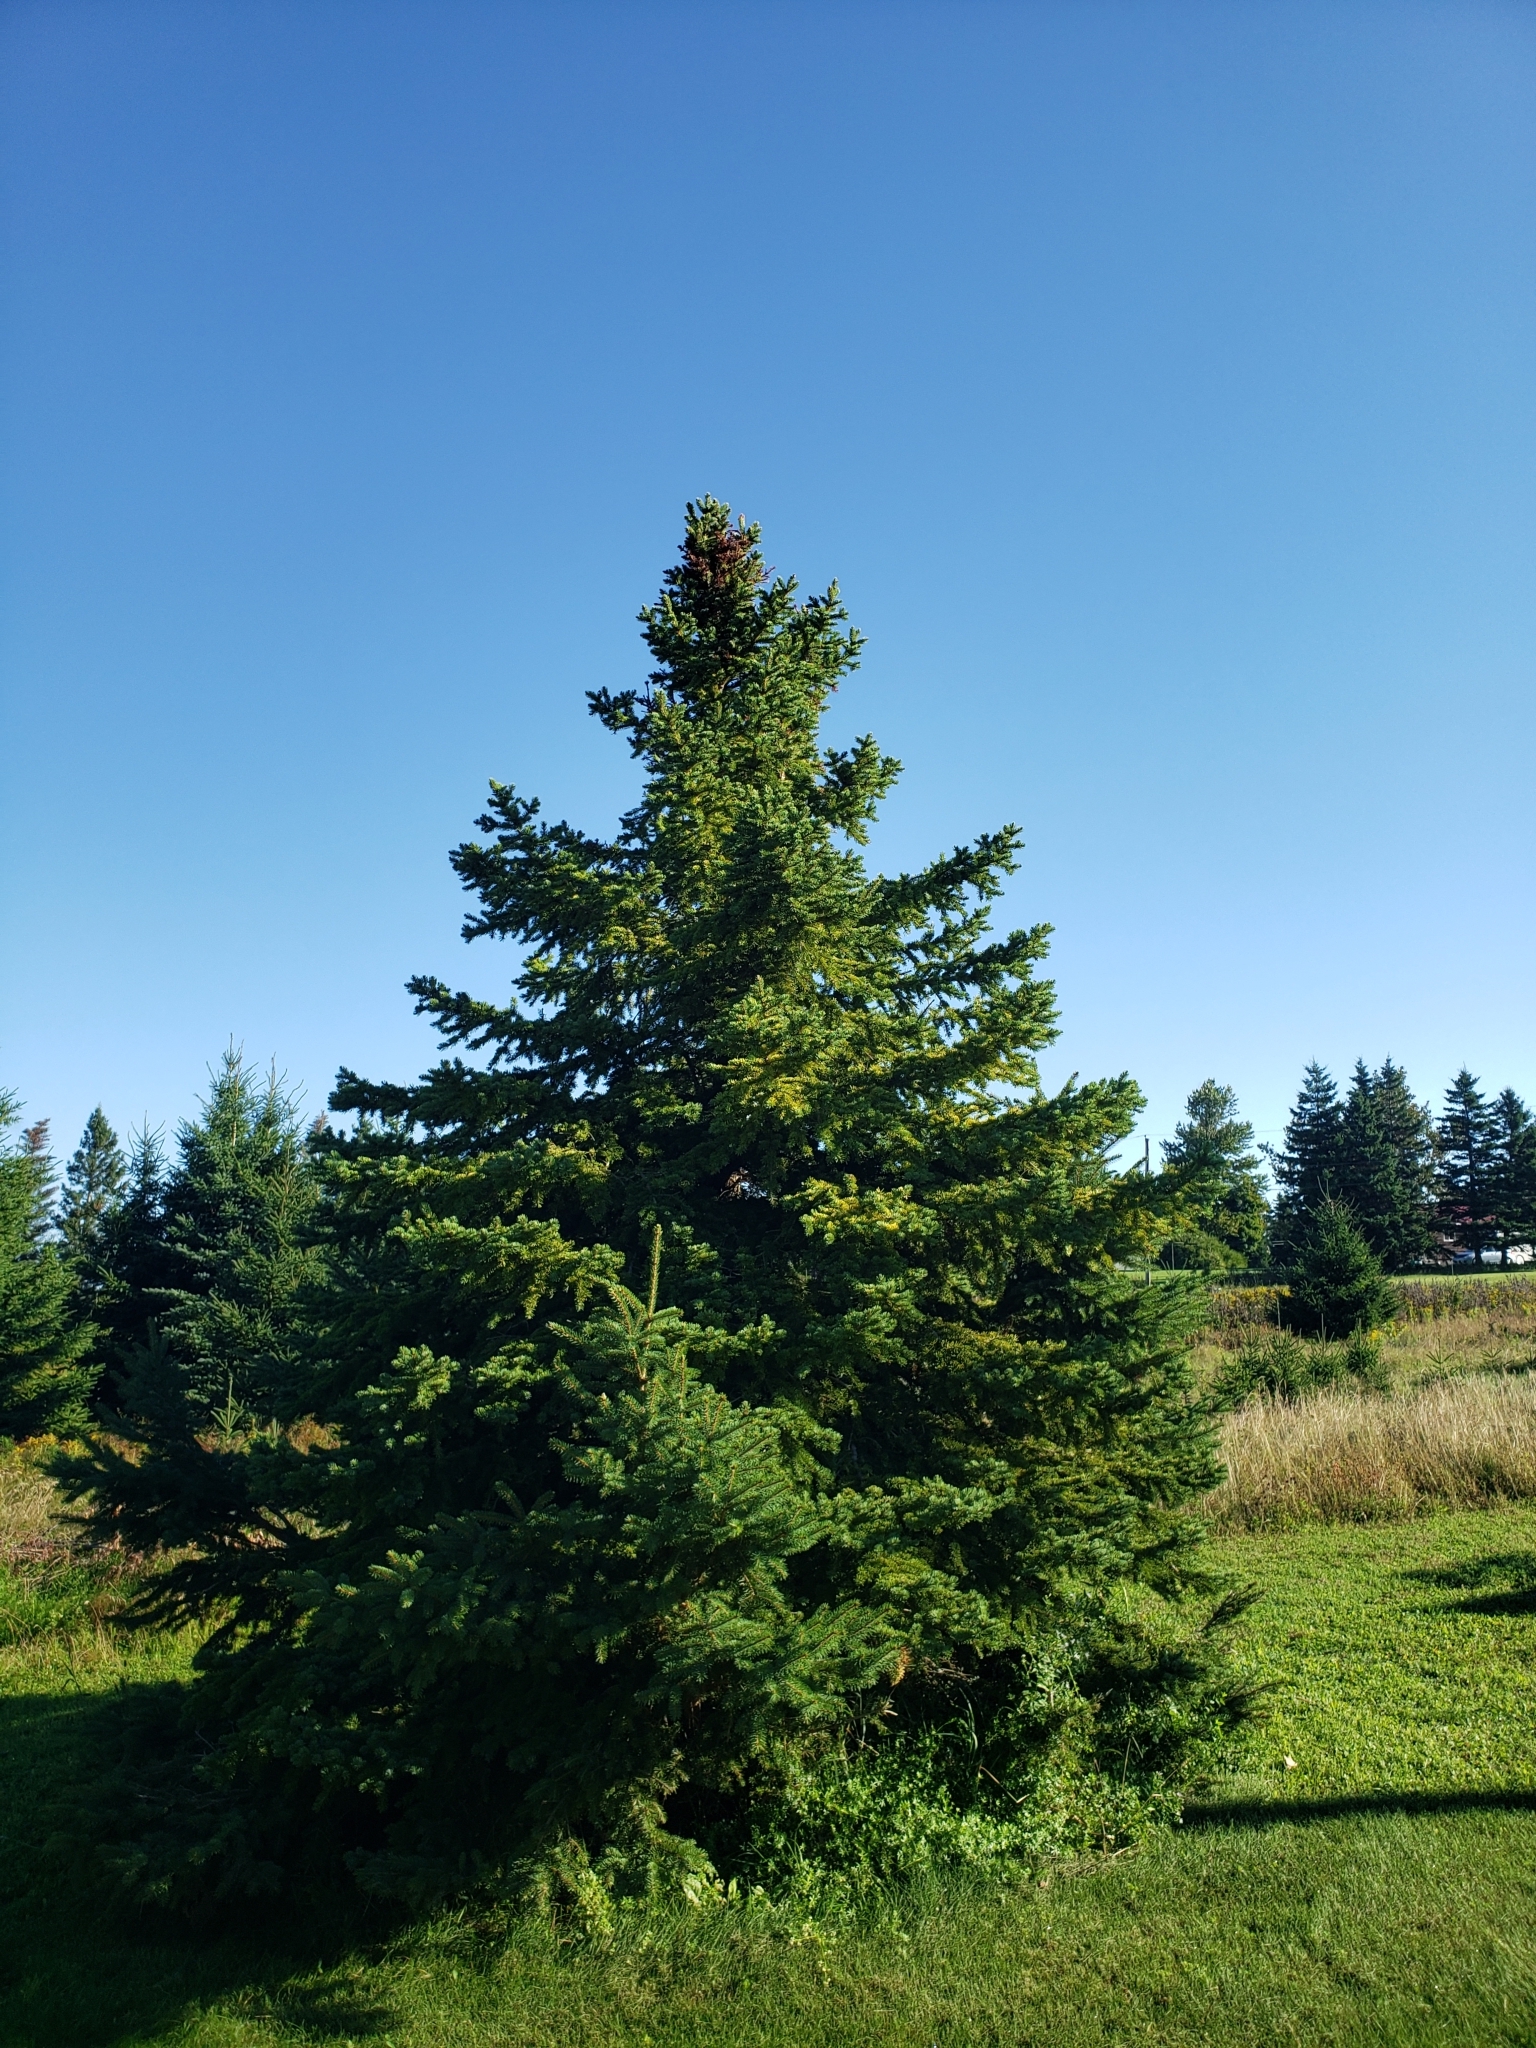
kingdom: Plantae
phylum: Tracheophyta
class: Pinopsida
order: Pinales
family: Pinaceae
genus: Picea
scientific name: Picea glauca
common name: White spruce
